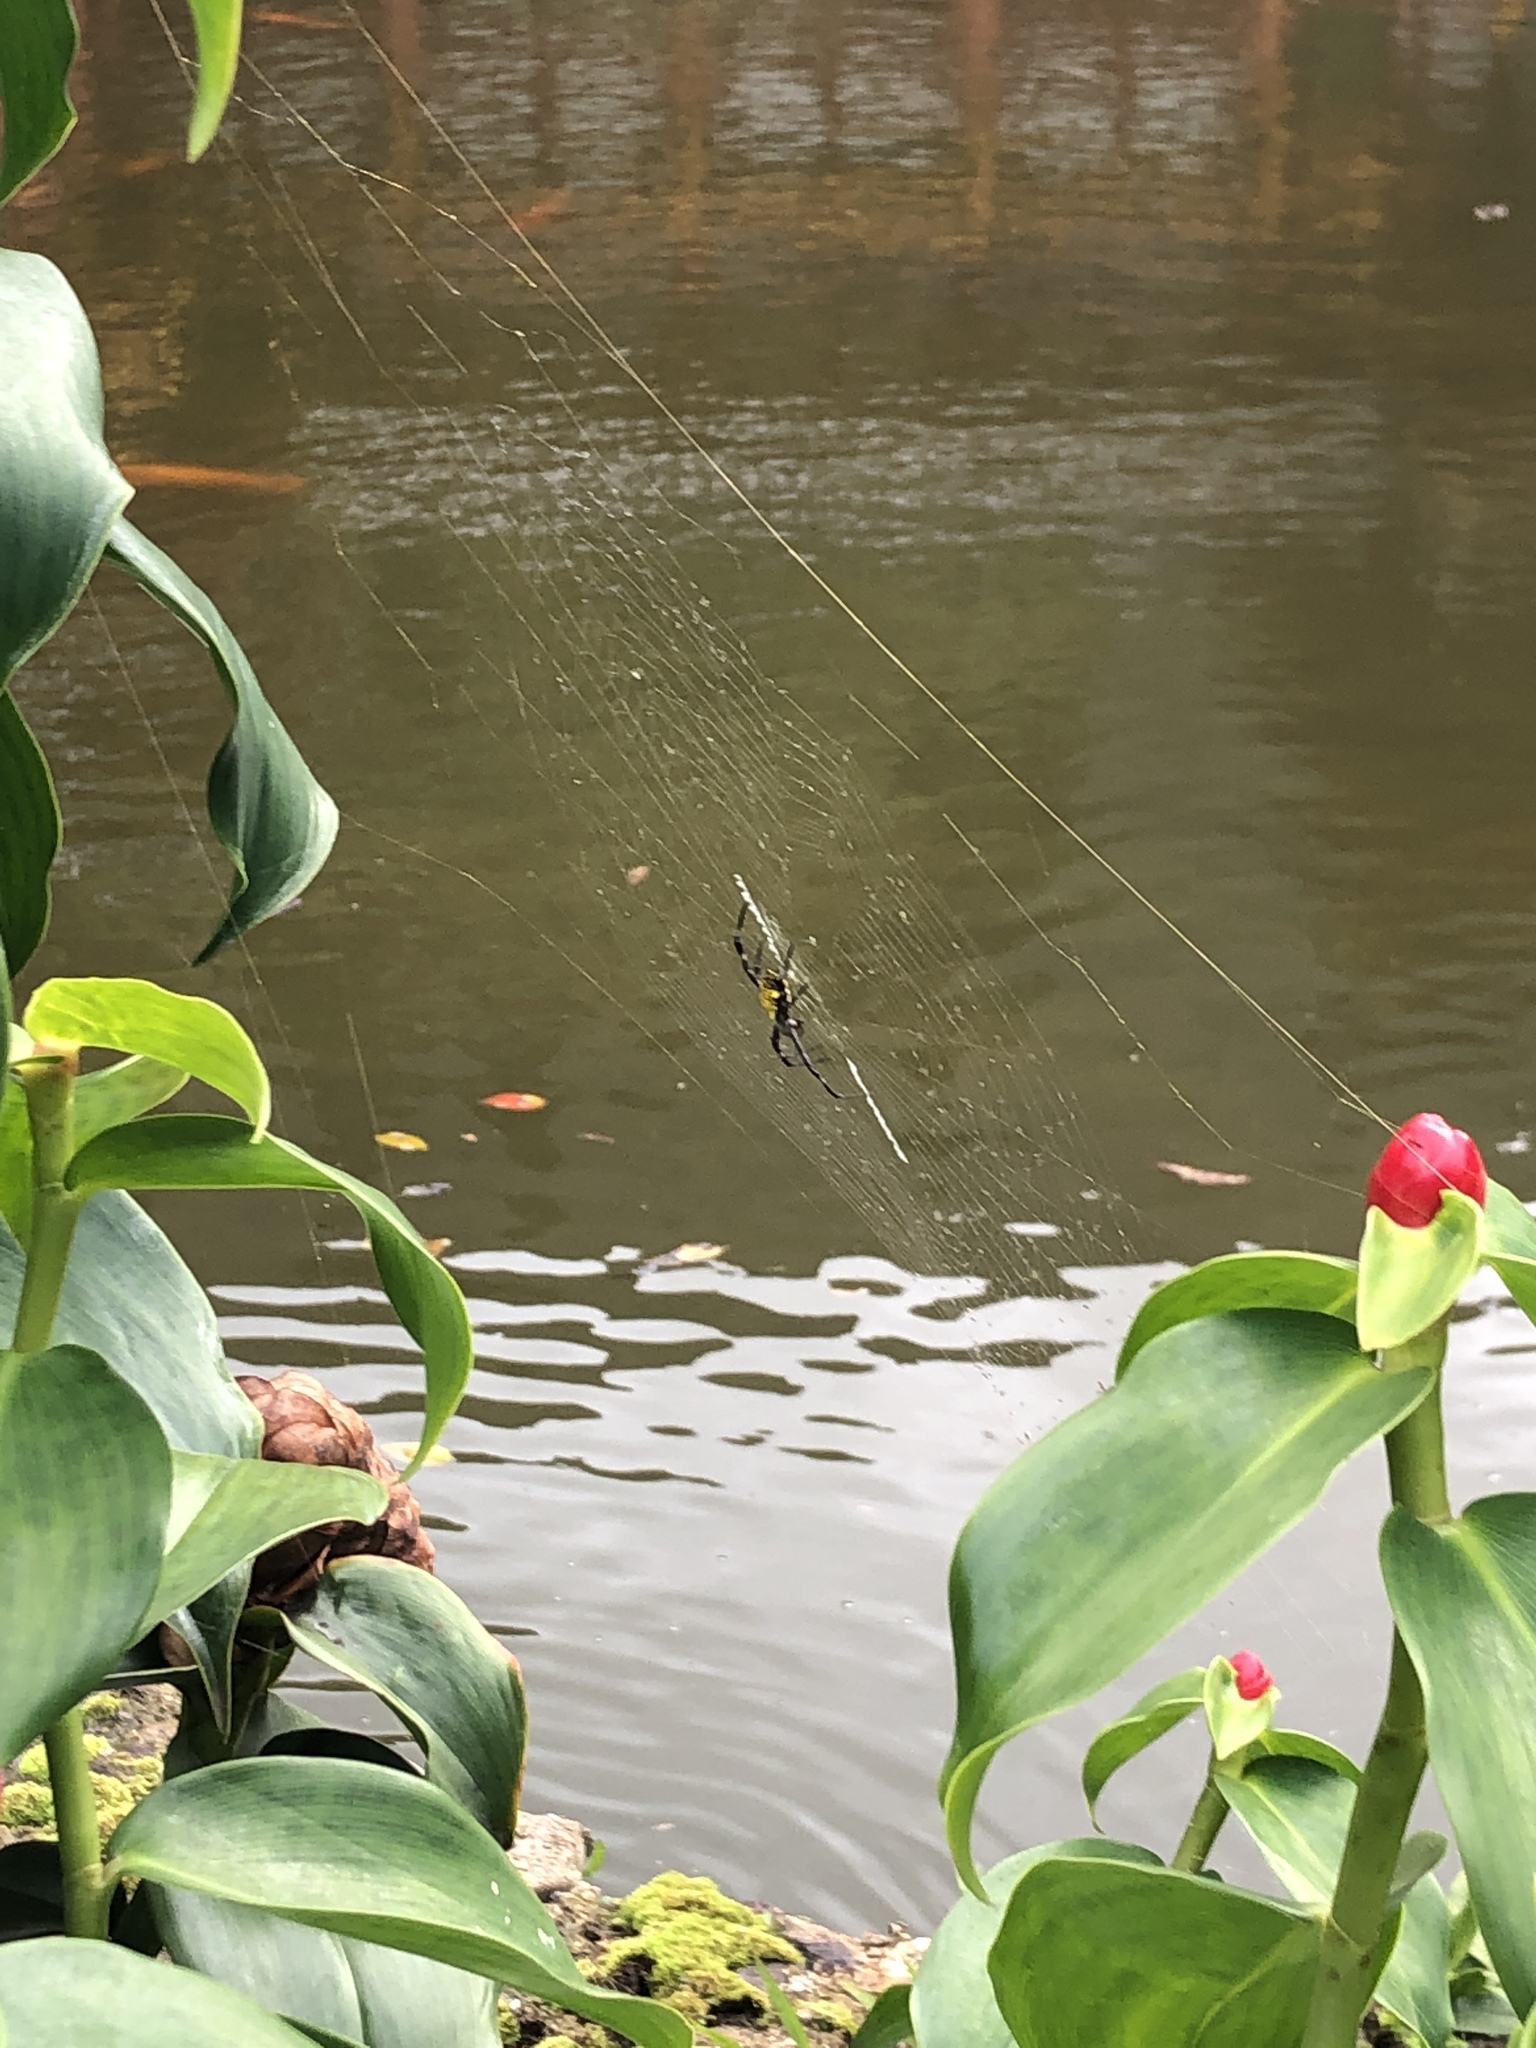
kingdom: Animalia
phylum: Arthropoda
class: Arachnida
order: Araneae
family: Araneidae
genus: Argiope
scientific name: Argiope appensa
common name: Garden spider
